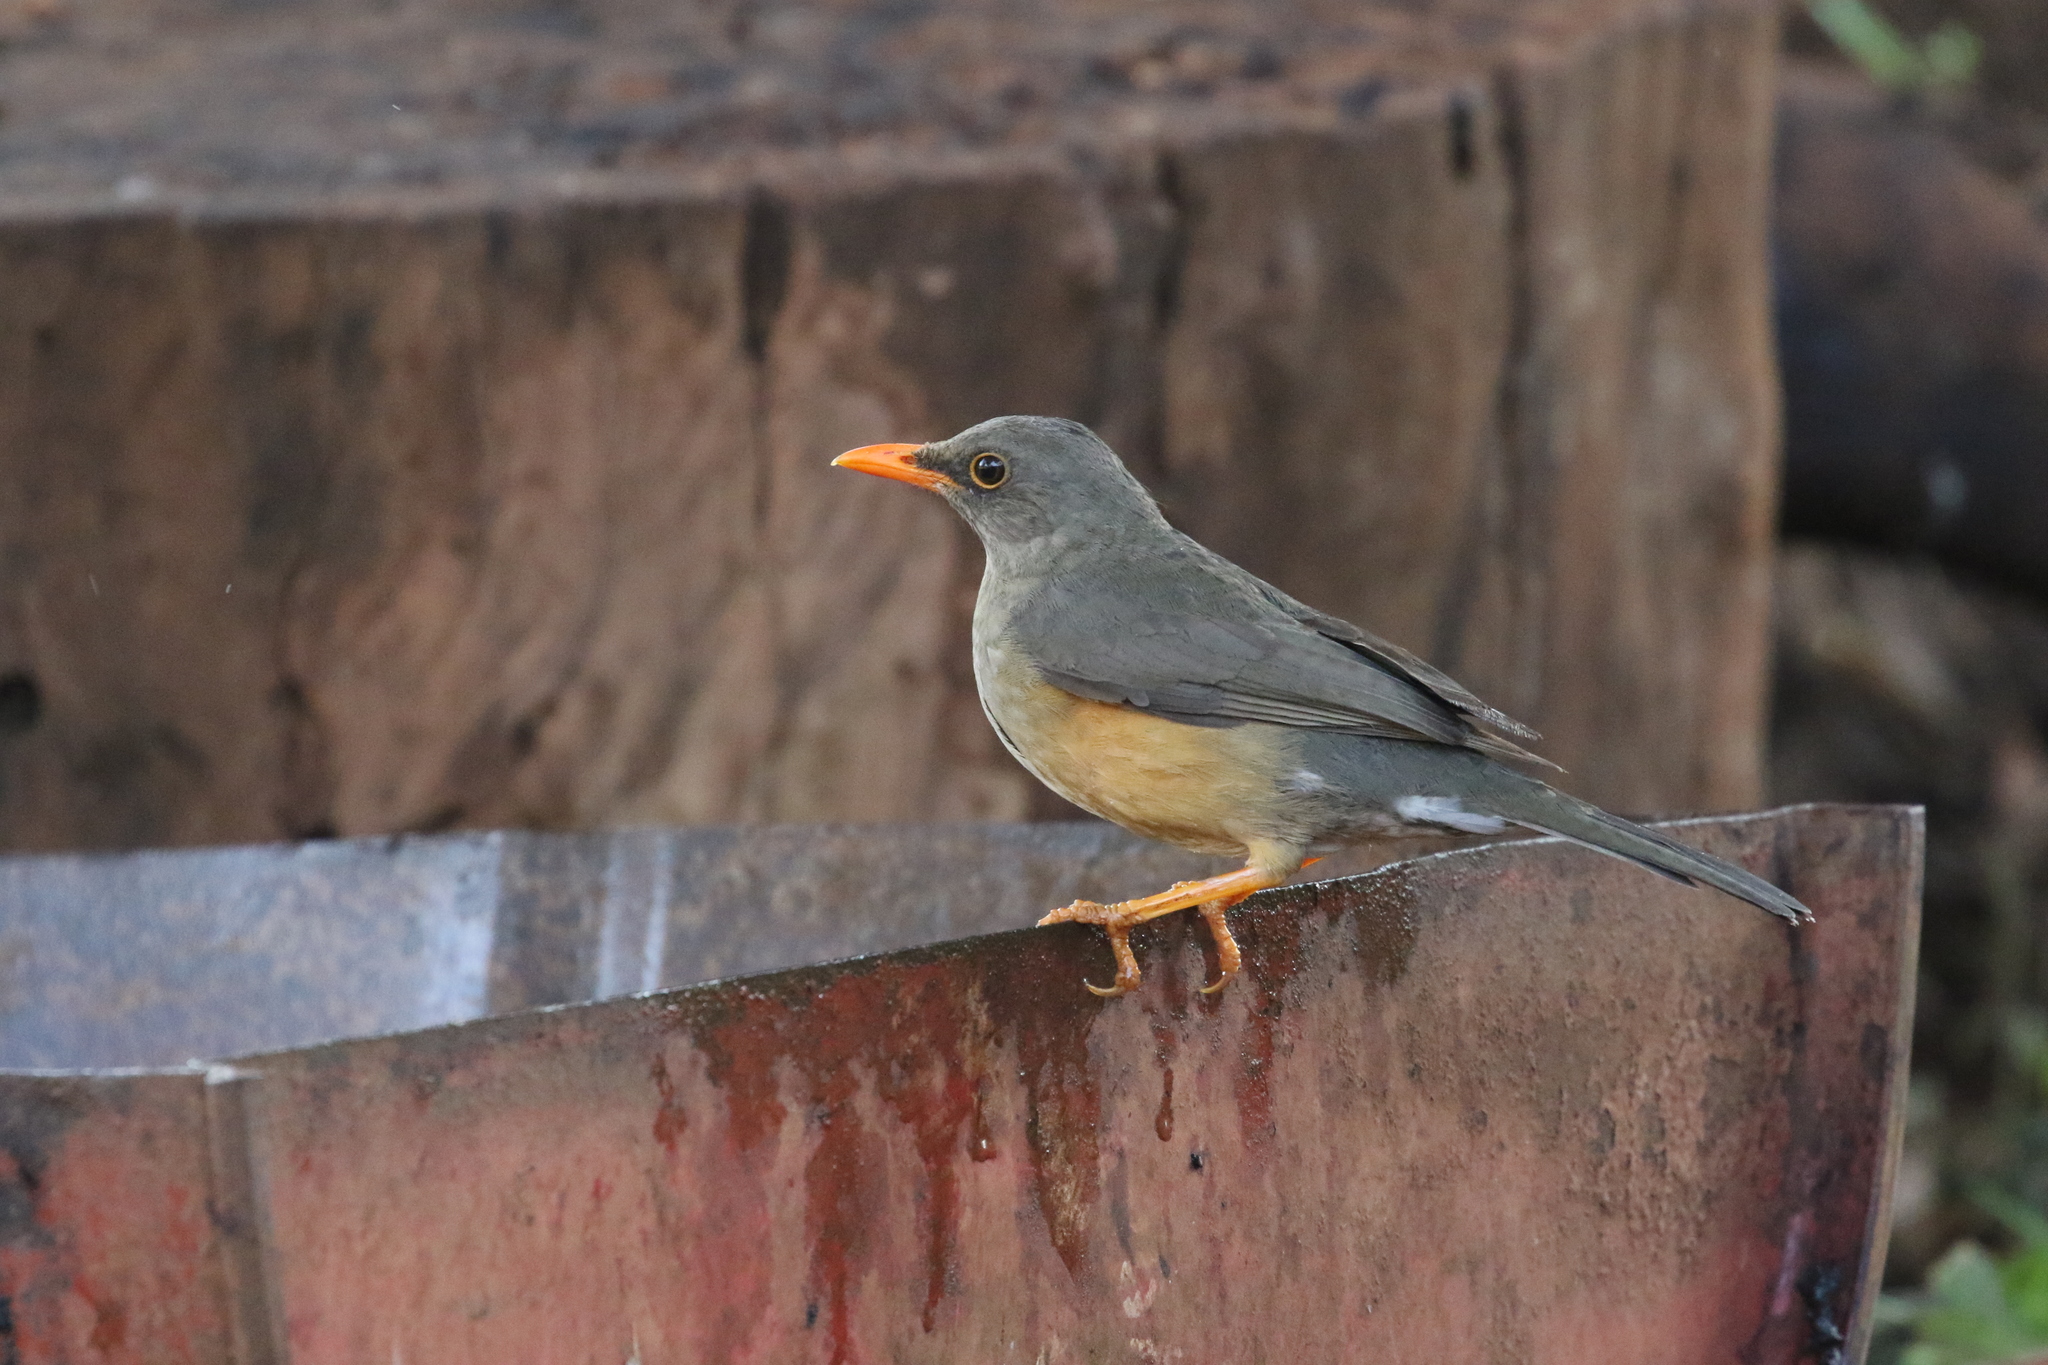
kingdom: Animalia
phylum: Chordata
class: Aves
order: Passeriformes
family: Turdidae
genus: Turdus
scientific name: Turdus abyssinicus
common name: Abyssinian thrush
